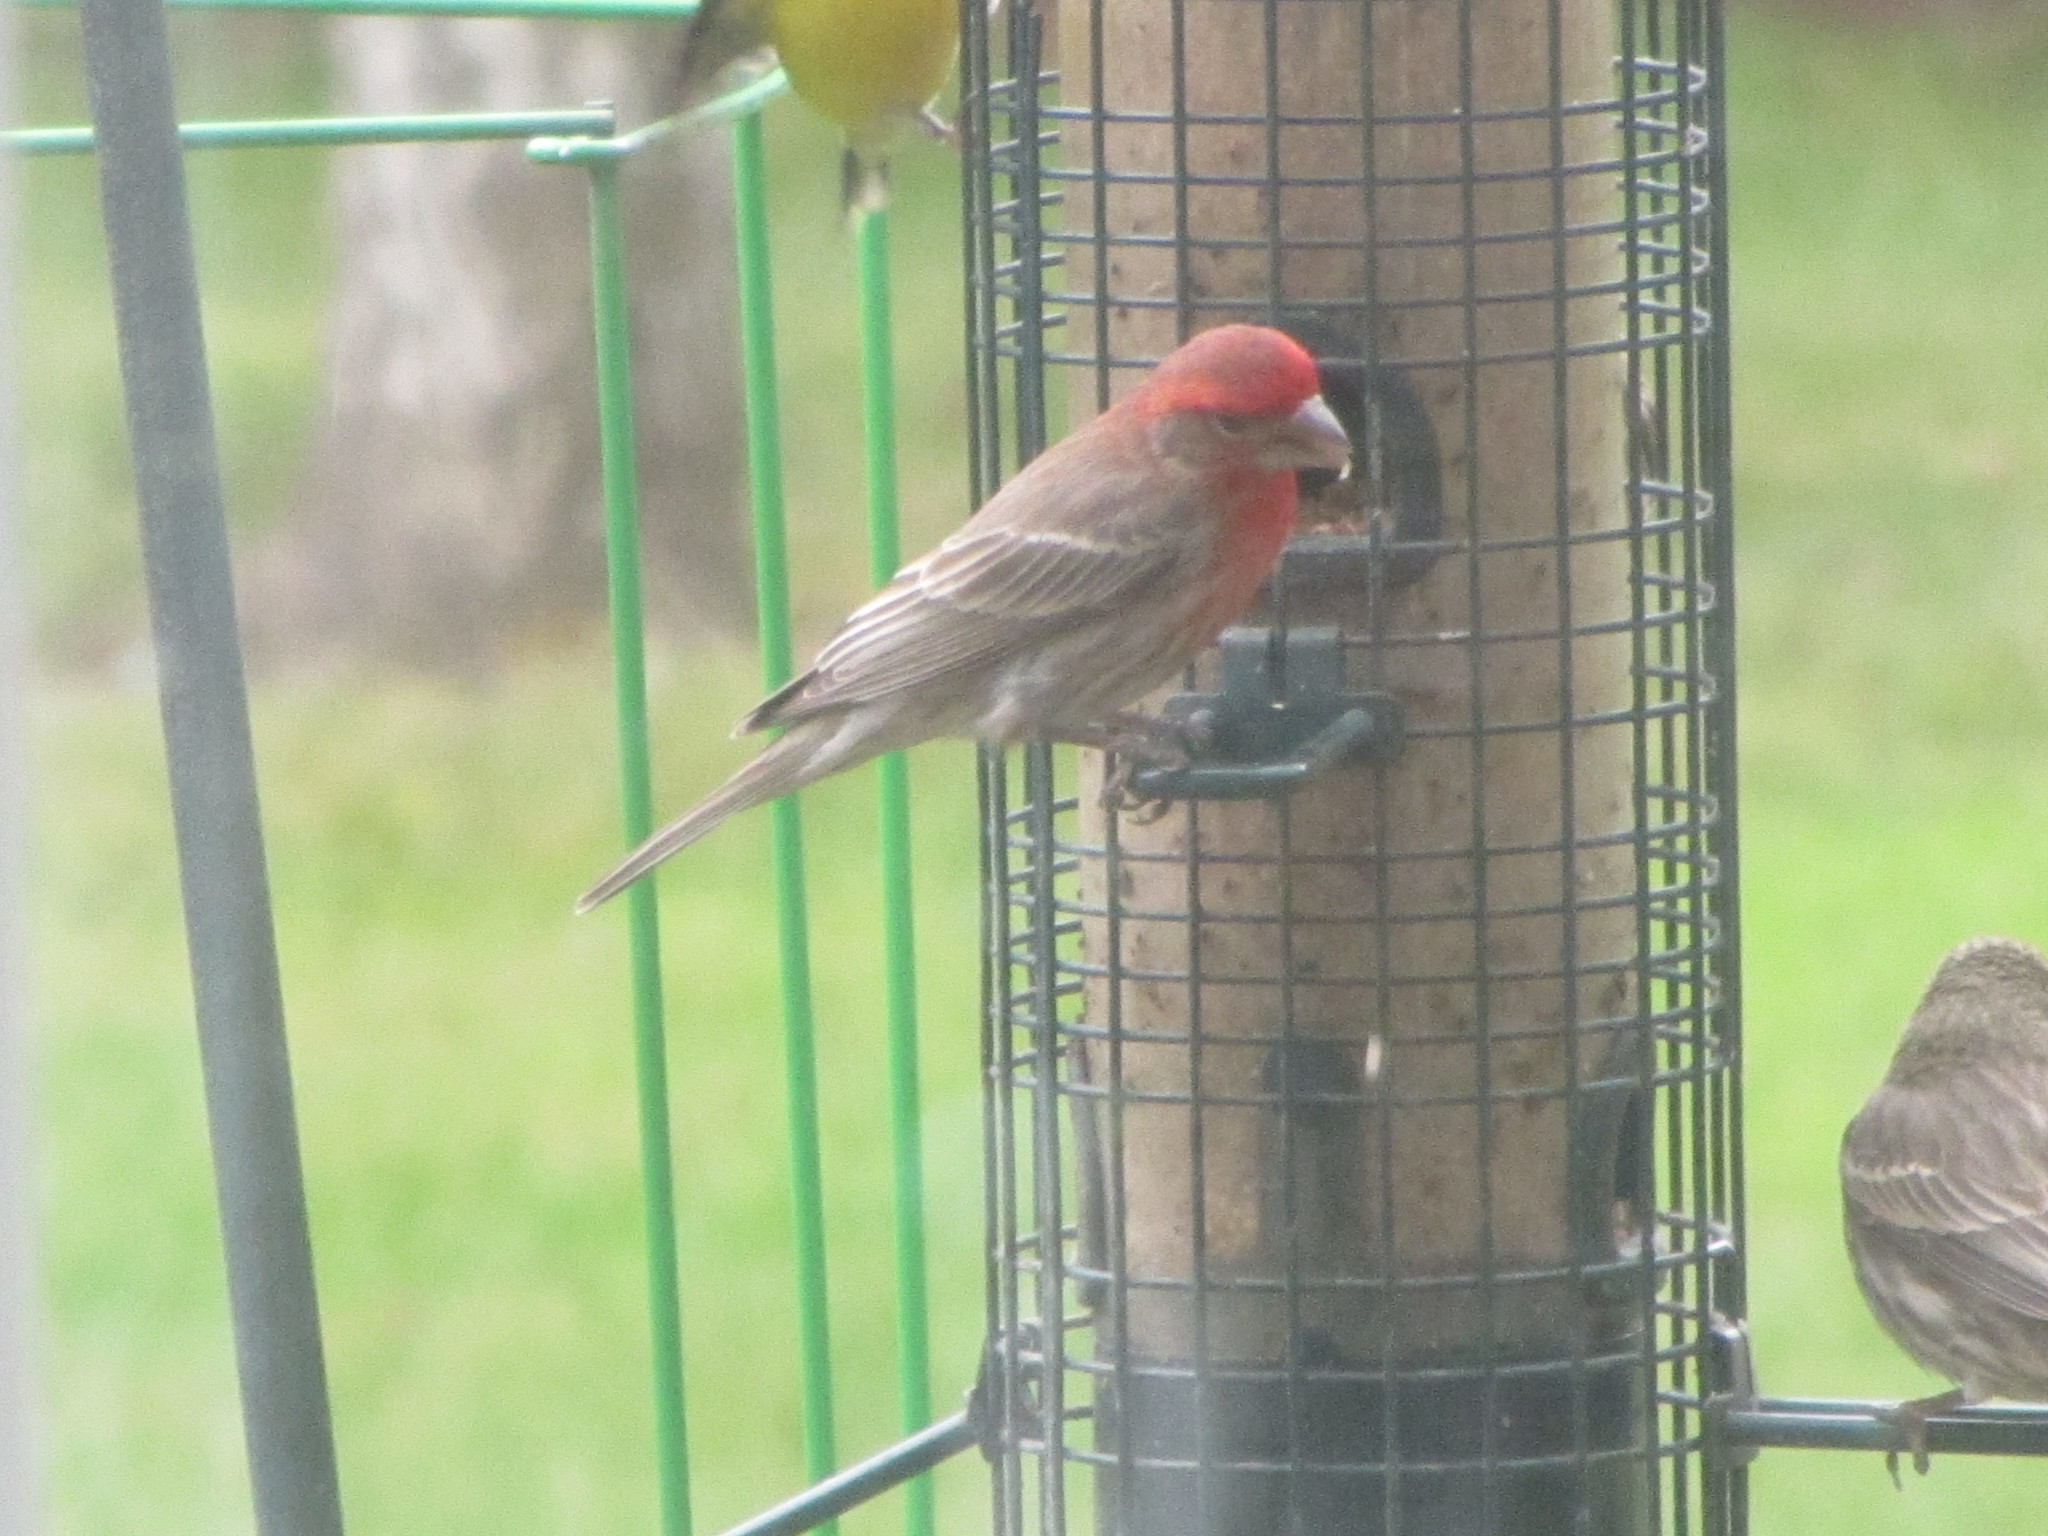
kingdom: Animalia
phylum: Chordata
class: Aves
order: Passeriformes
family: Fringillidae
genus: Haemorhous
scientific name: Haemorhous mexicanus
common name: House finch
